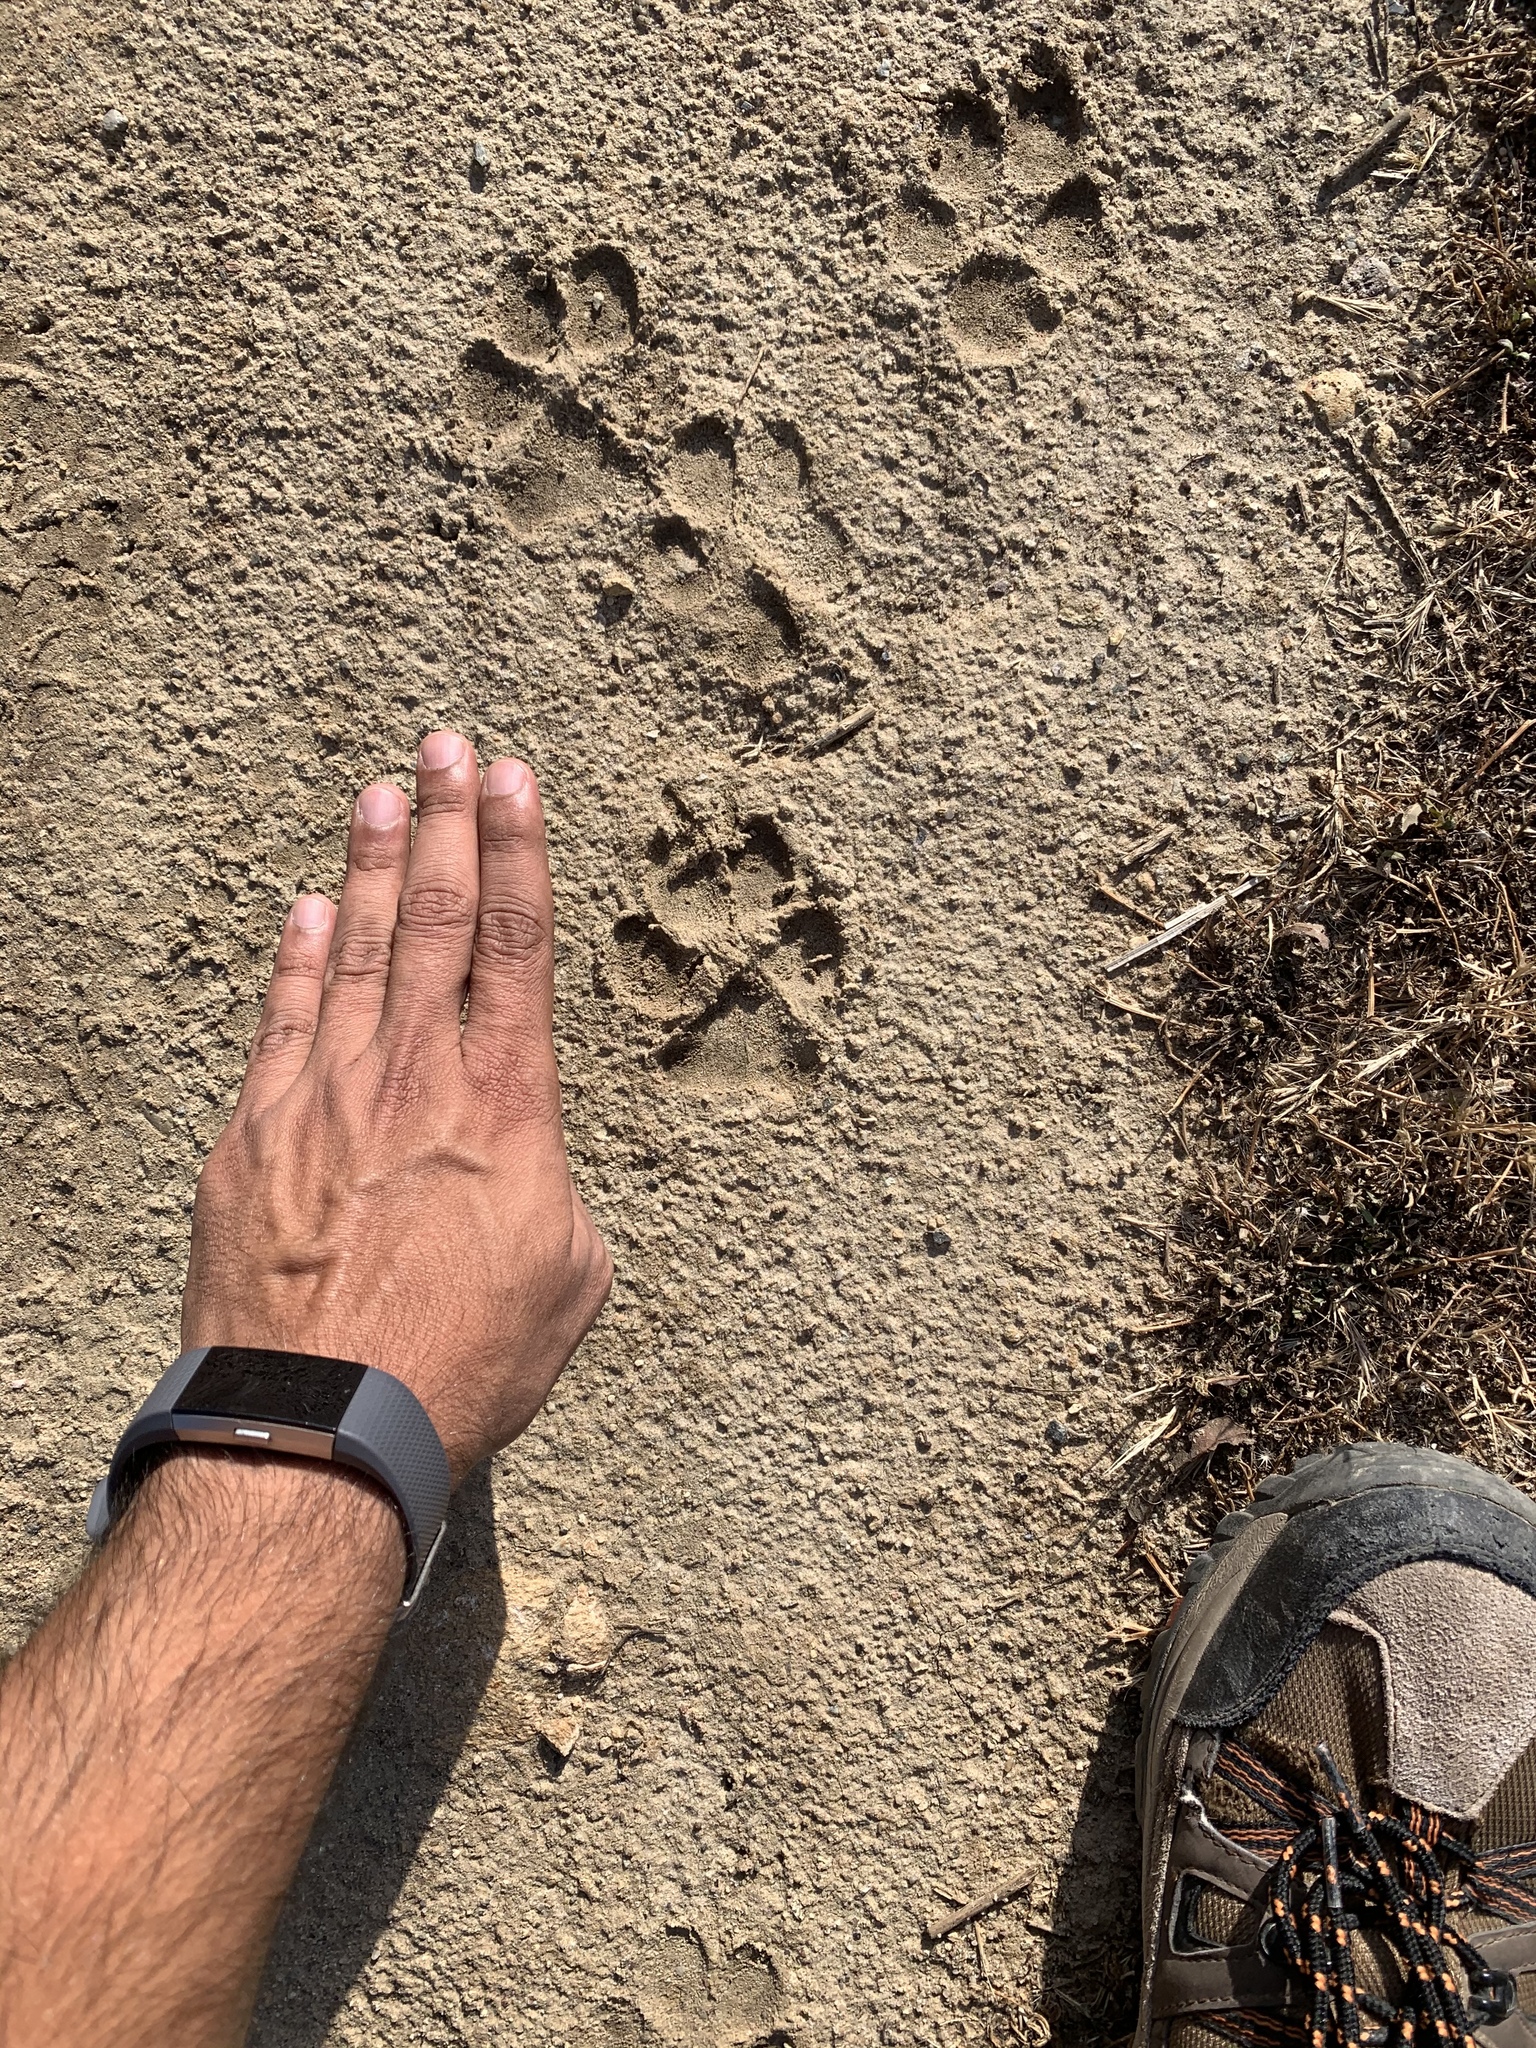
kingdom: Animalia
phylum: Chordata
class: Mammalia
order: Carnivora
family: Canidae
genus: Canis
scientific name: Canis latrans
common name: Coyote
